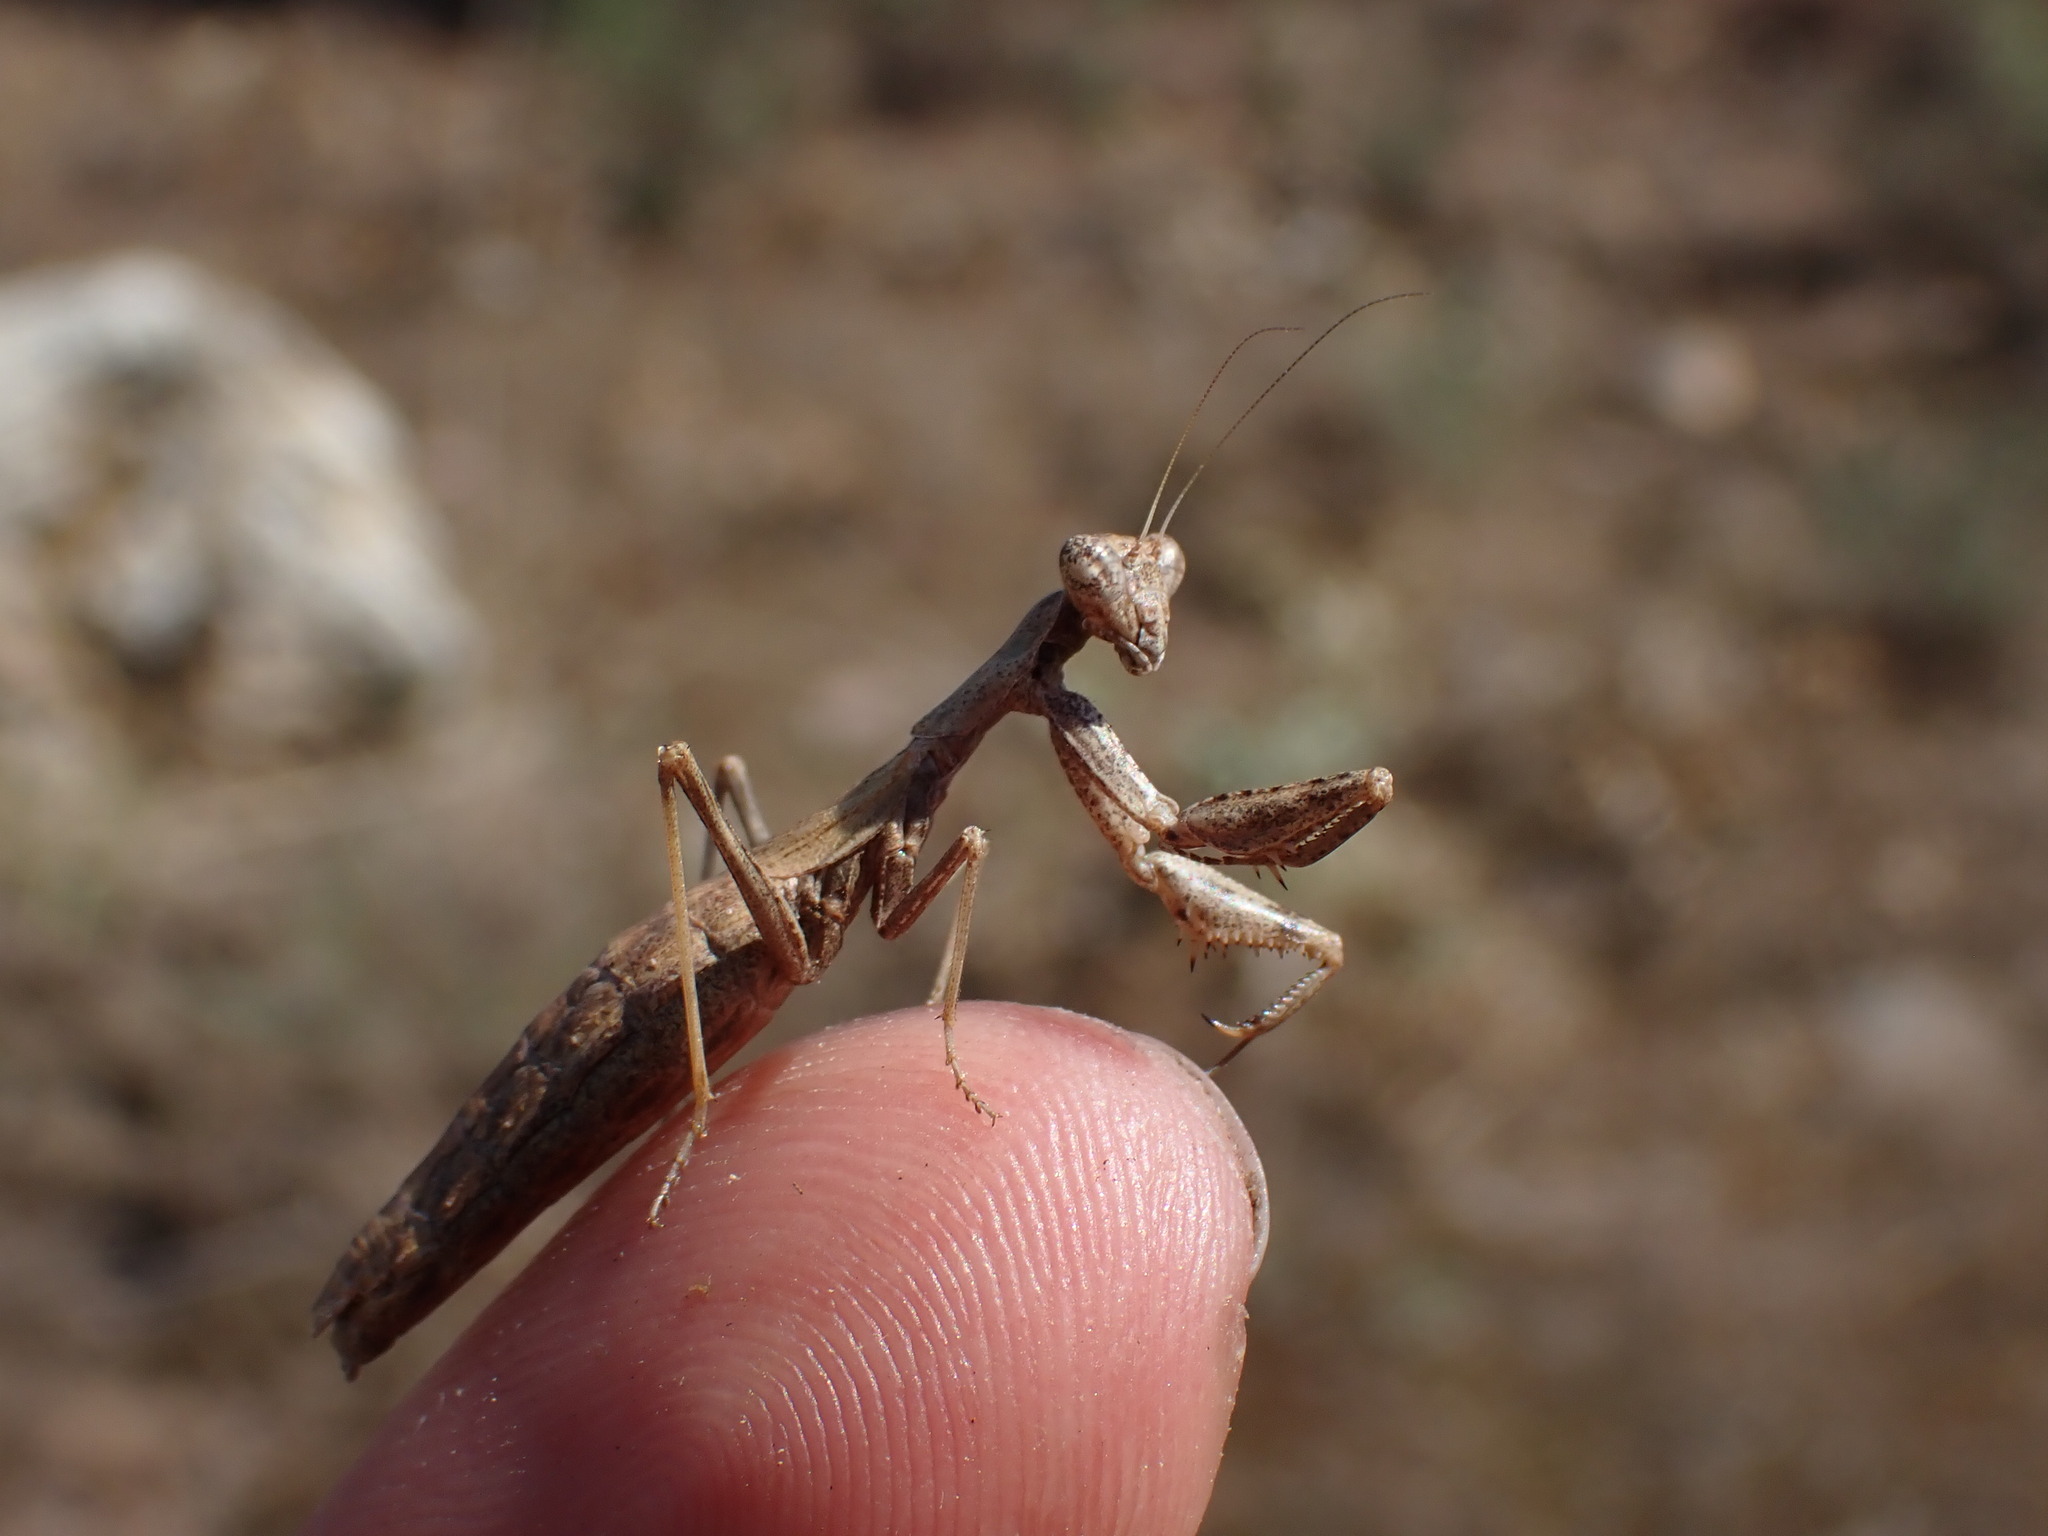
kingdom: Animalia
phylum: Arthropoda
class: Insecta
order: Mantodea
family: Amelidae
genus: Ameles
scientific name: Ameles decolor
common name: Dwarf mantis
